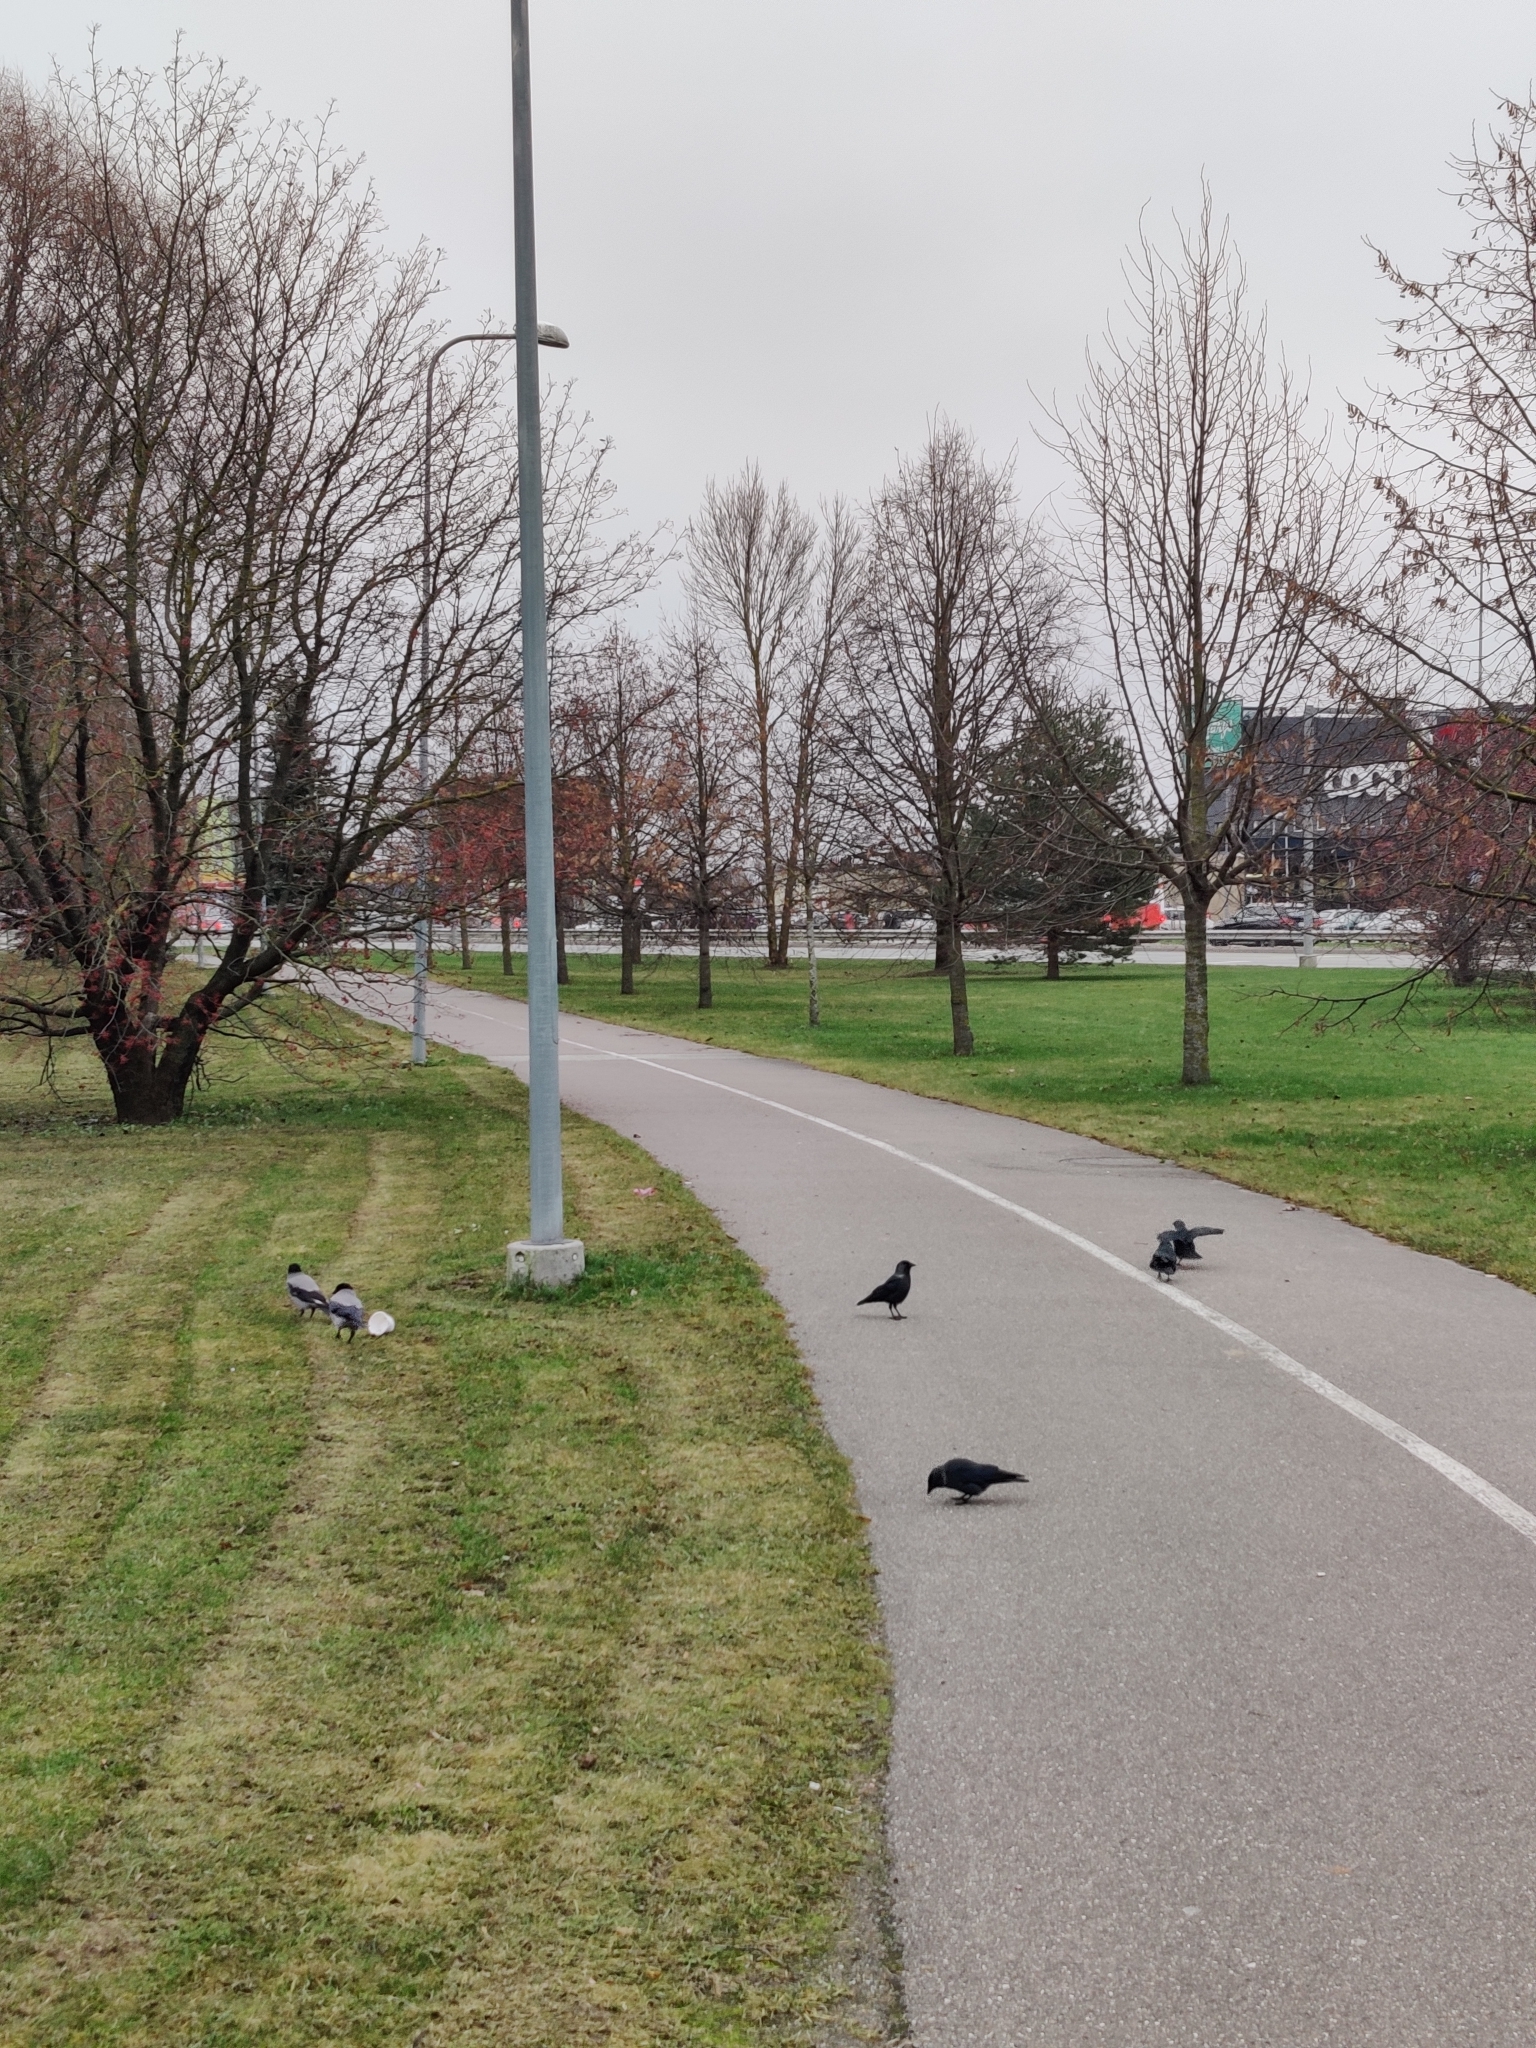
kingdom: Animalia
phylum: Chordata
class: Aves
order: Passeriformes
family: Corvidae
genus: Coloeus
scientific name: Coloeus monedula
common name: Western jackdaw
